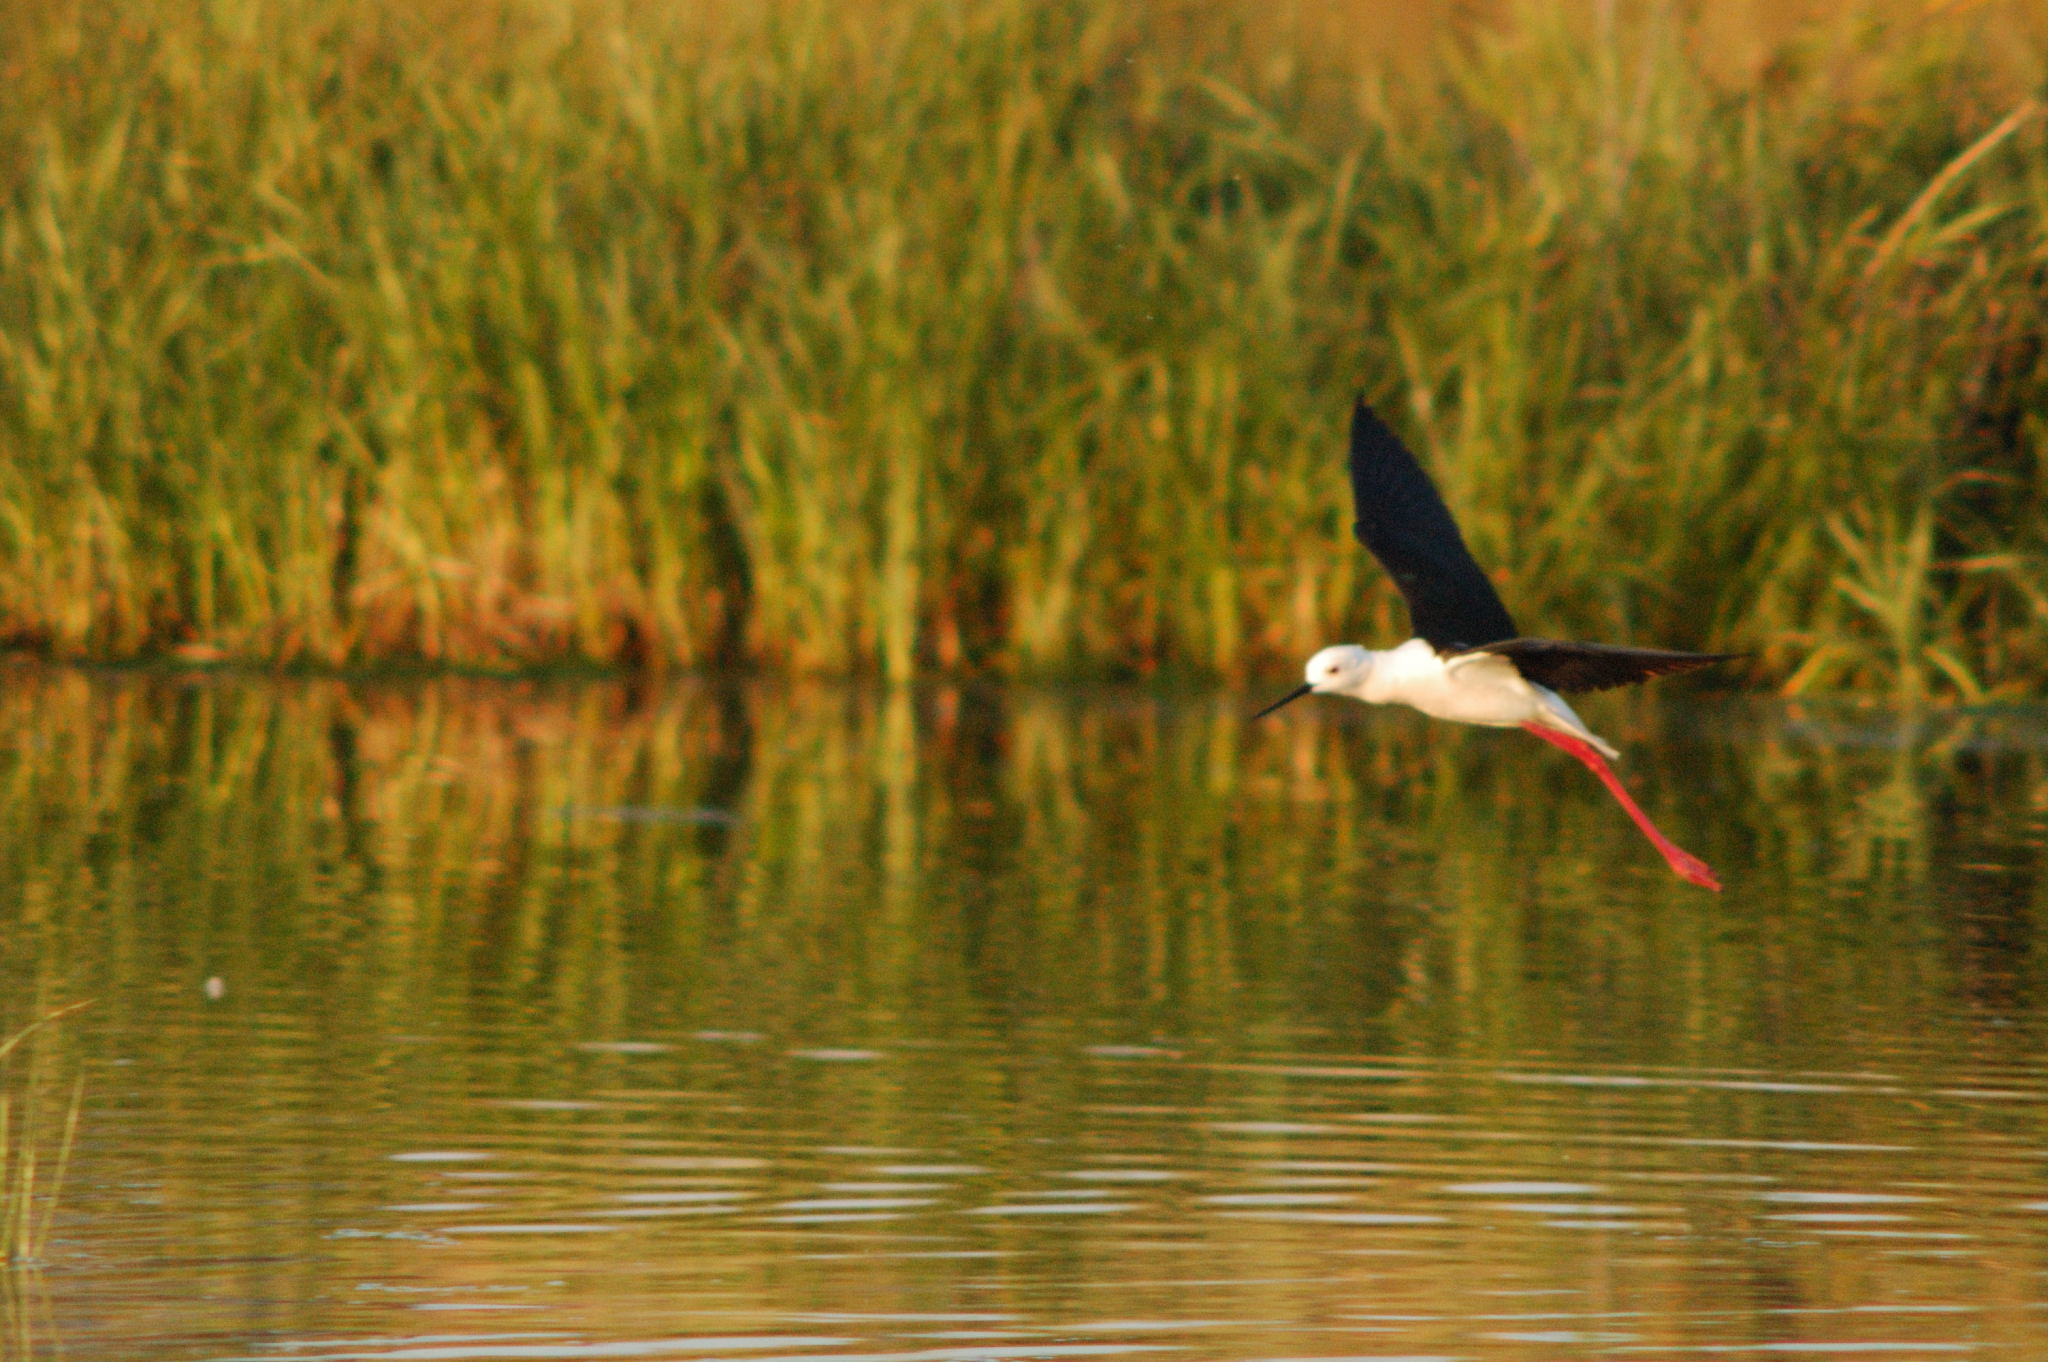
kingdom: Animalia
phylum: Chordata
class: Aves
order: Charadriiformes
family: Recurvirostridae
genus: Himantopus
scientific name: Himantopus himantopus
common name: Black-winged stilt
